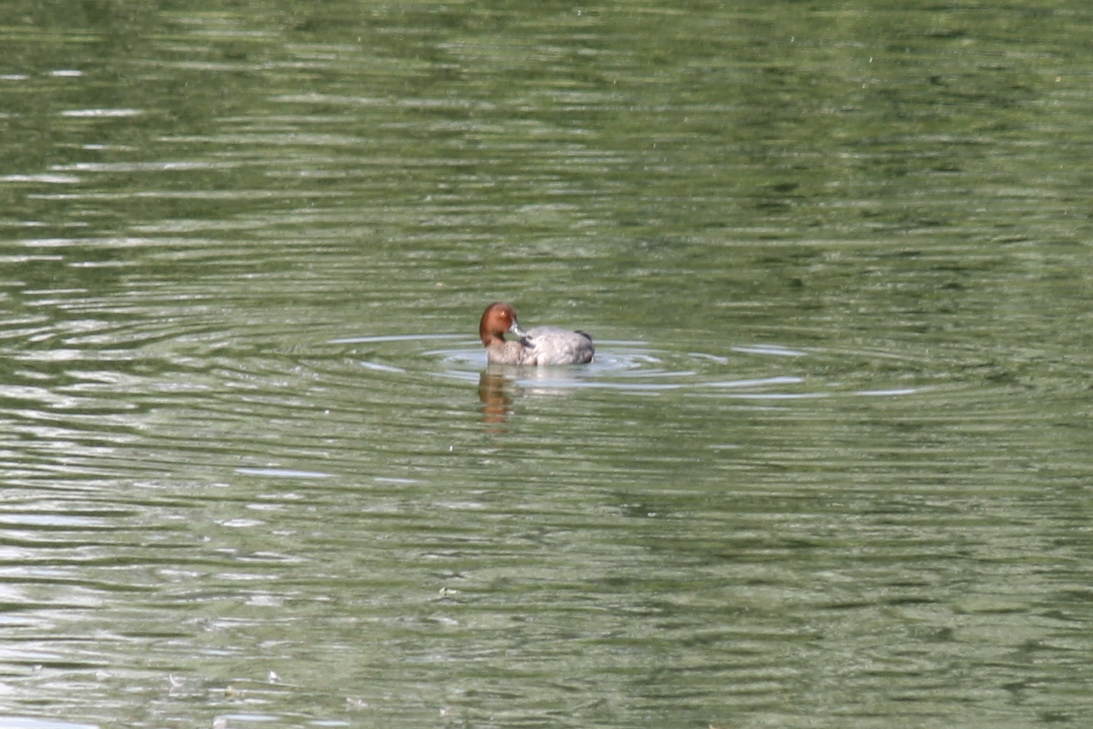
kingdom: Animalia
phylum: Chordata
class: Aves
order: Anseriformes
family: Anatidae
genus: Aythya
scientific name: Aythya ferina
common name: Common pochard
